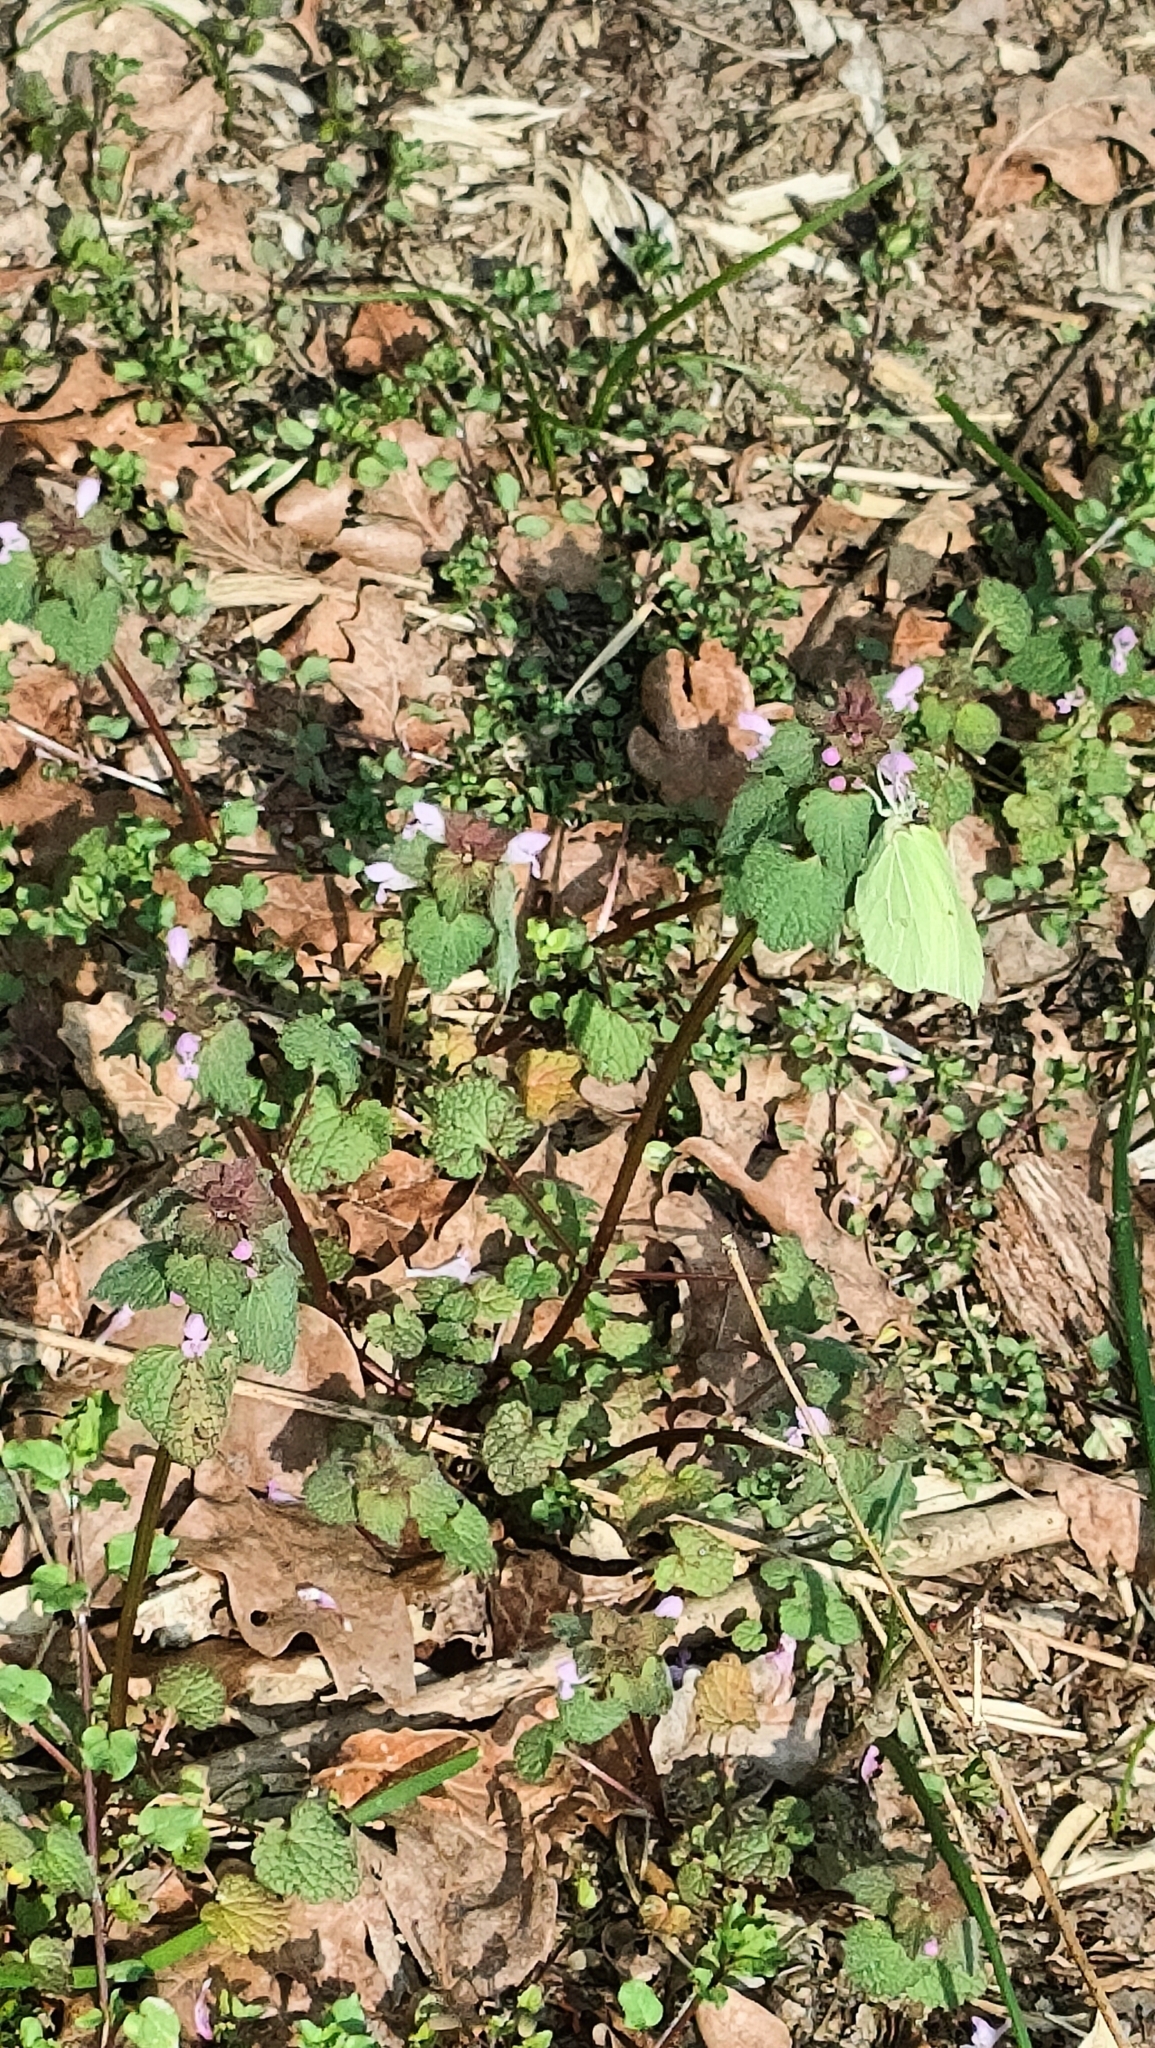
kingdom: Animalia
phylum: Arthropoda
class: Insecta
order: Lepidoptera
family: Pieridae
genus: Gonepteryx
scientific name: Gonepteryx rhamni
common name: Brimstone
